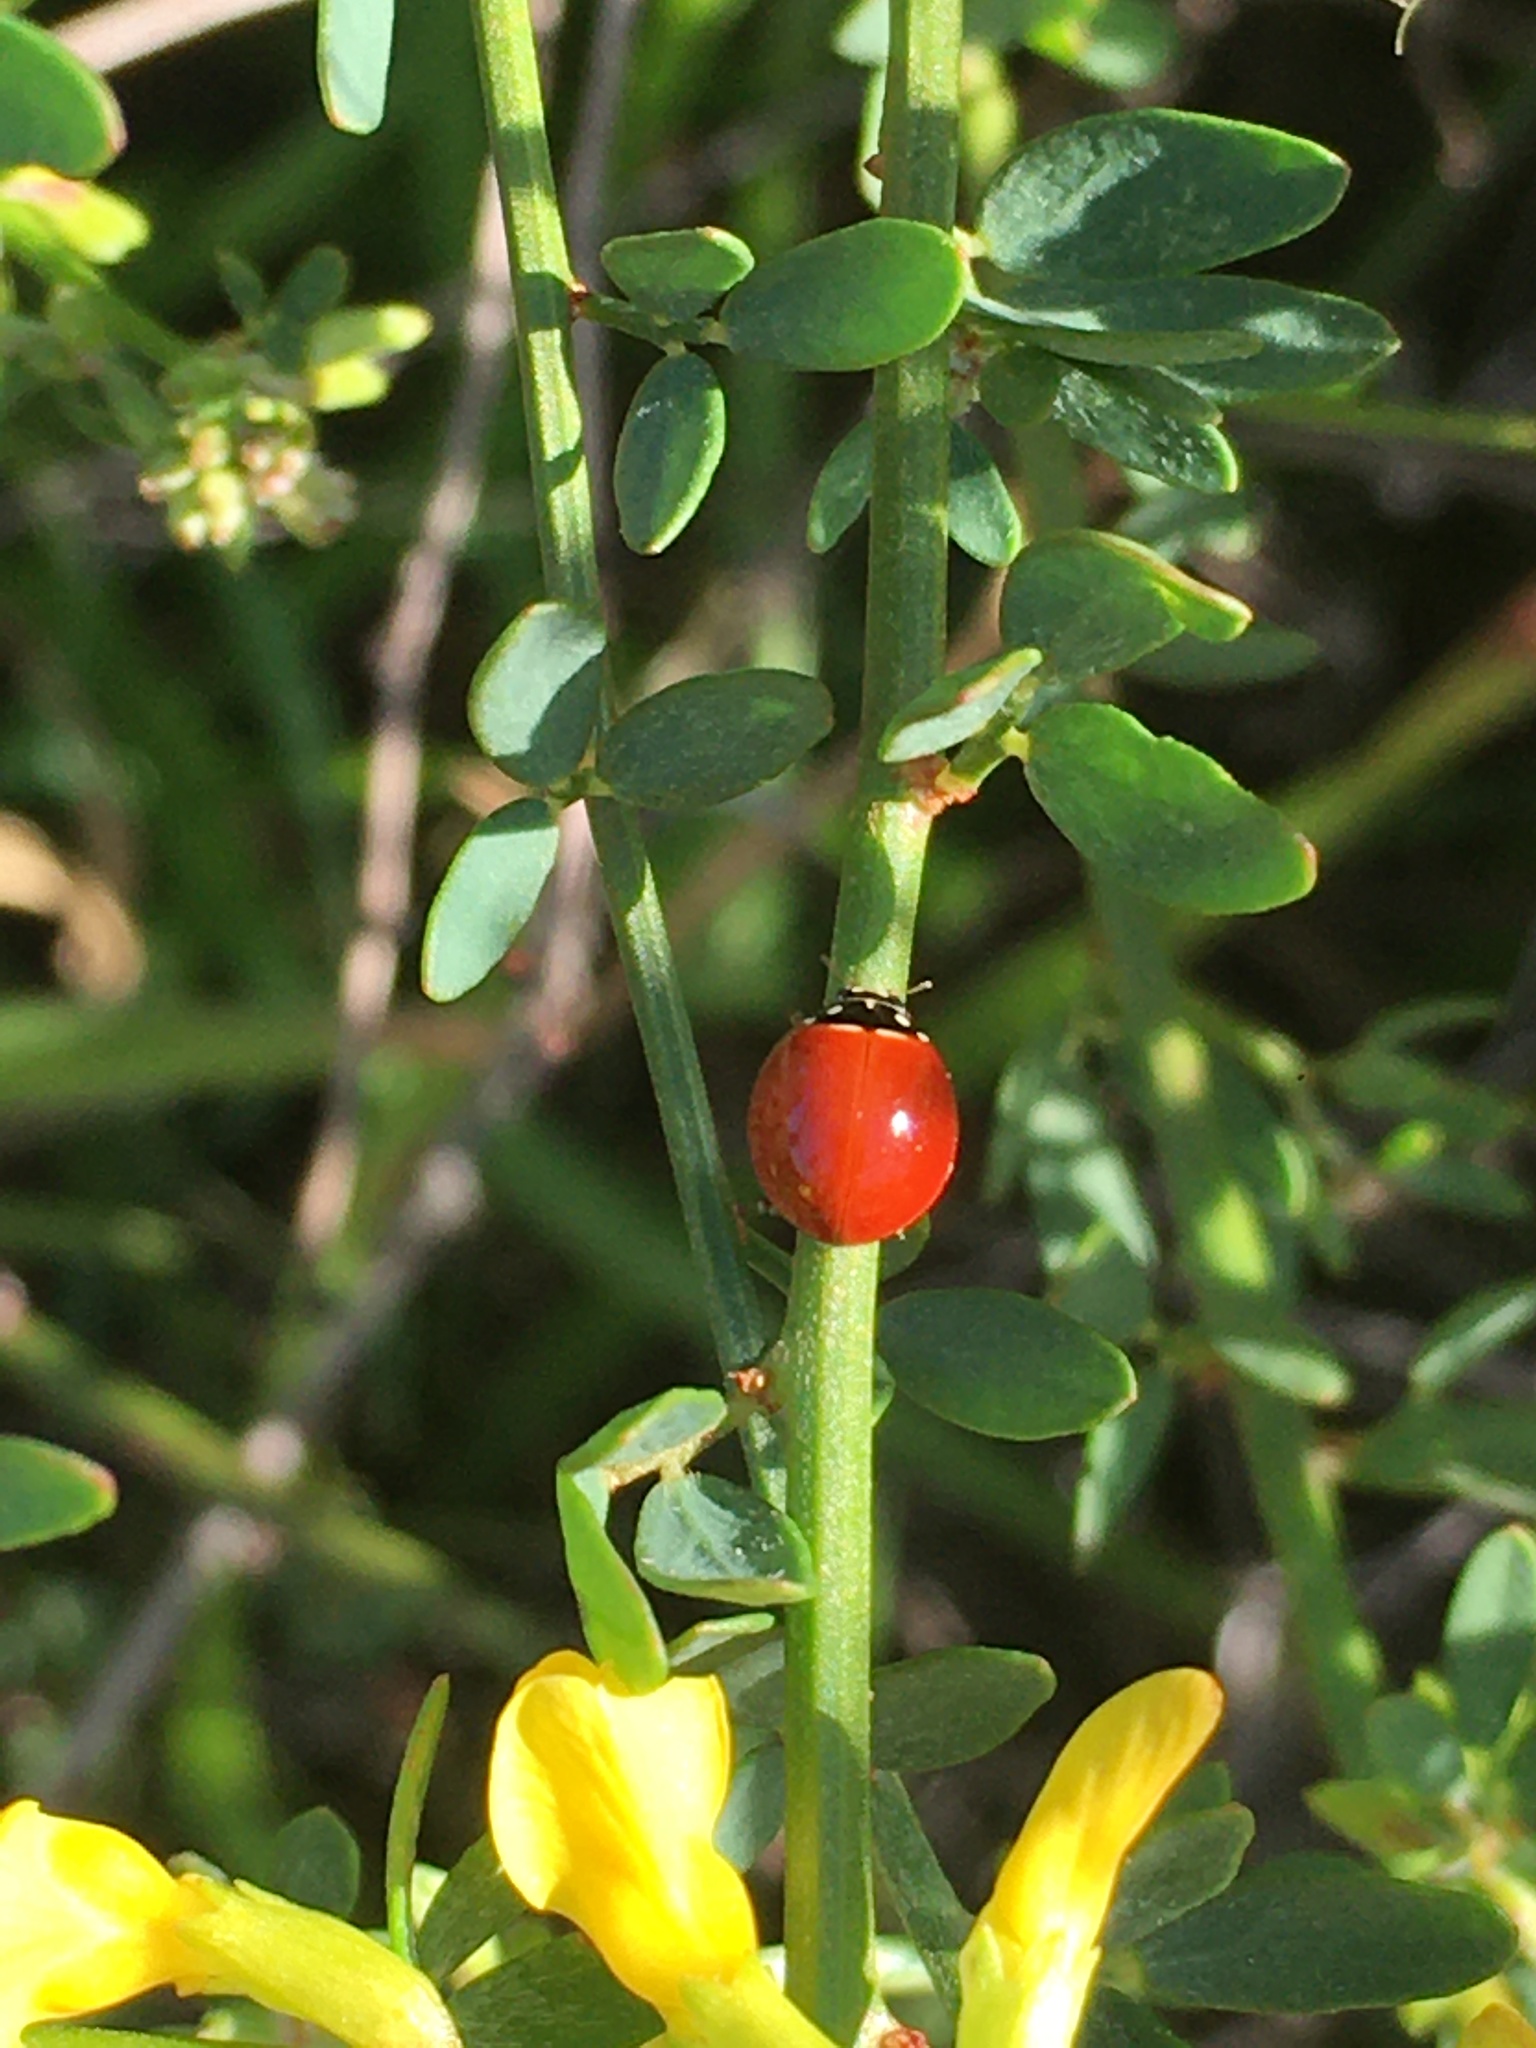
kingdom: Animalia
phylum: Arthropoda
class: Insecta
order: Coleoptera
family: Coccinellidae
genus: Cycloneda
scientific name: Cycloneda sanguinea
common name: Ladybird beetle
